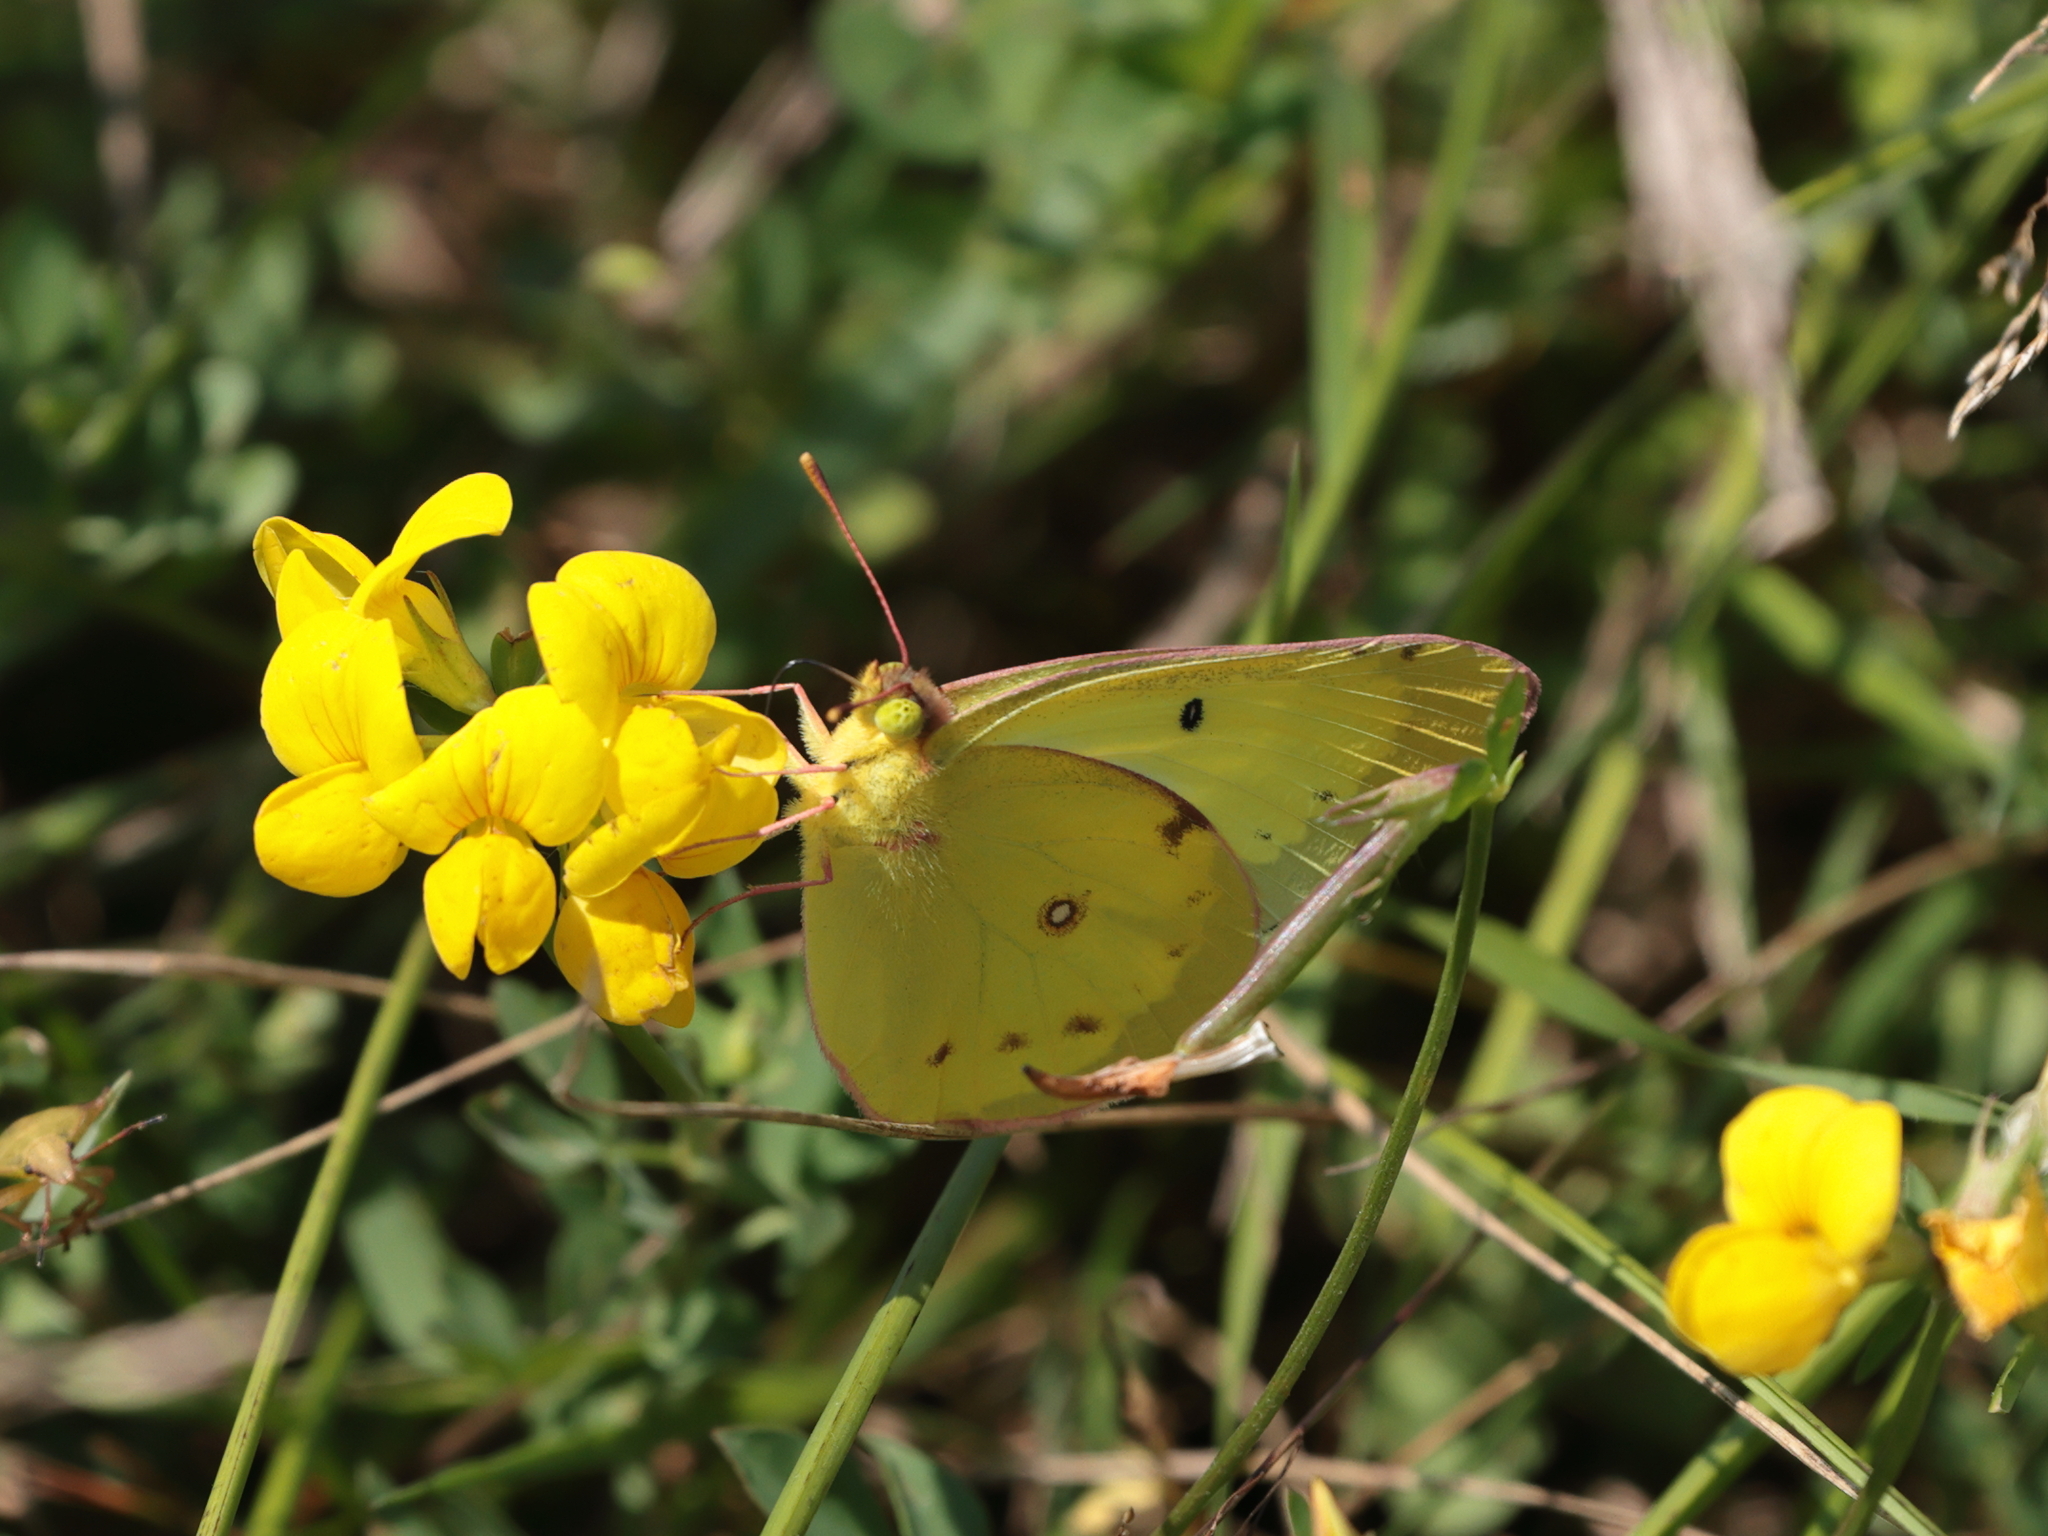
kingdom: Animalia
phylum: Arthropoda
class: Insecta
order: Lepidoptera
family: Pieridae
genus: Colias
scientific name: Colias philodice
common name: Clouded sulphur
